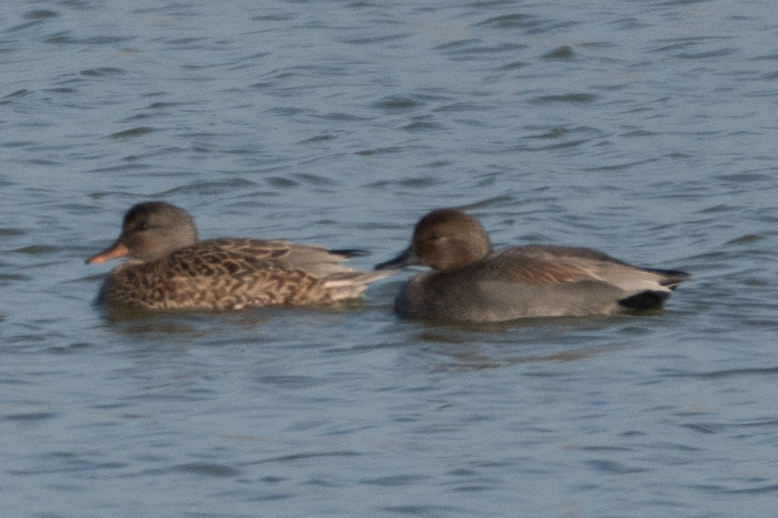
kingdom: Animalia
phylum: Chordata
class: Aves
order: Anseriformes
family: Anatidae
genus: Mareca
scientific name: Mareca strepera
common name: Gadwall
